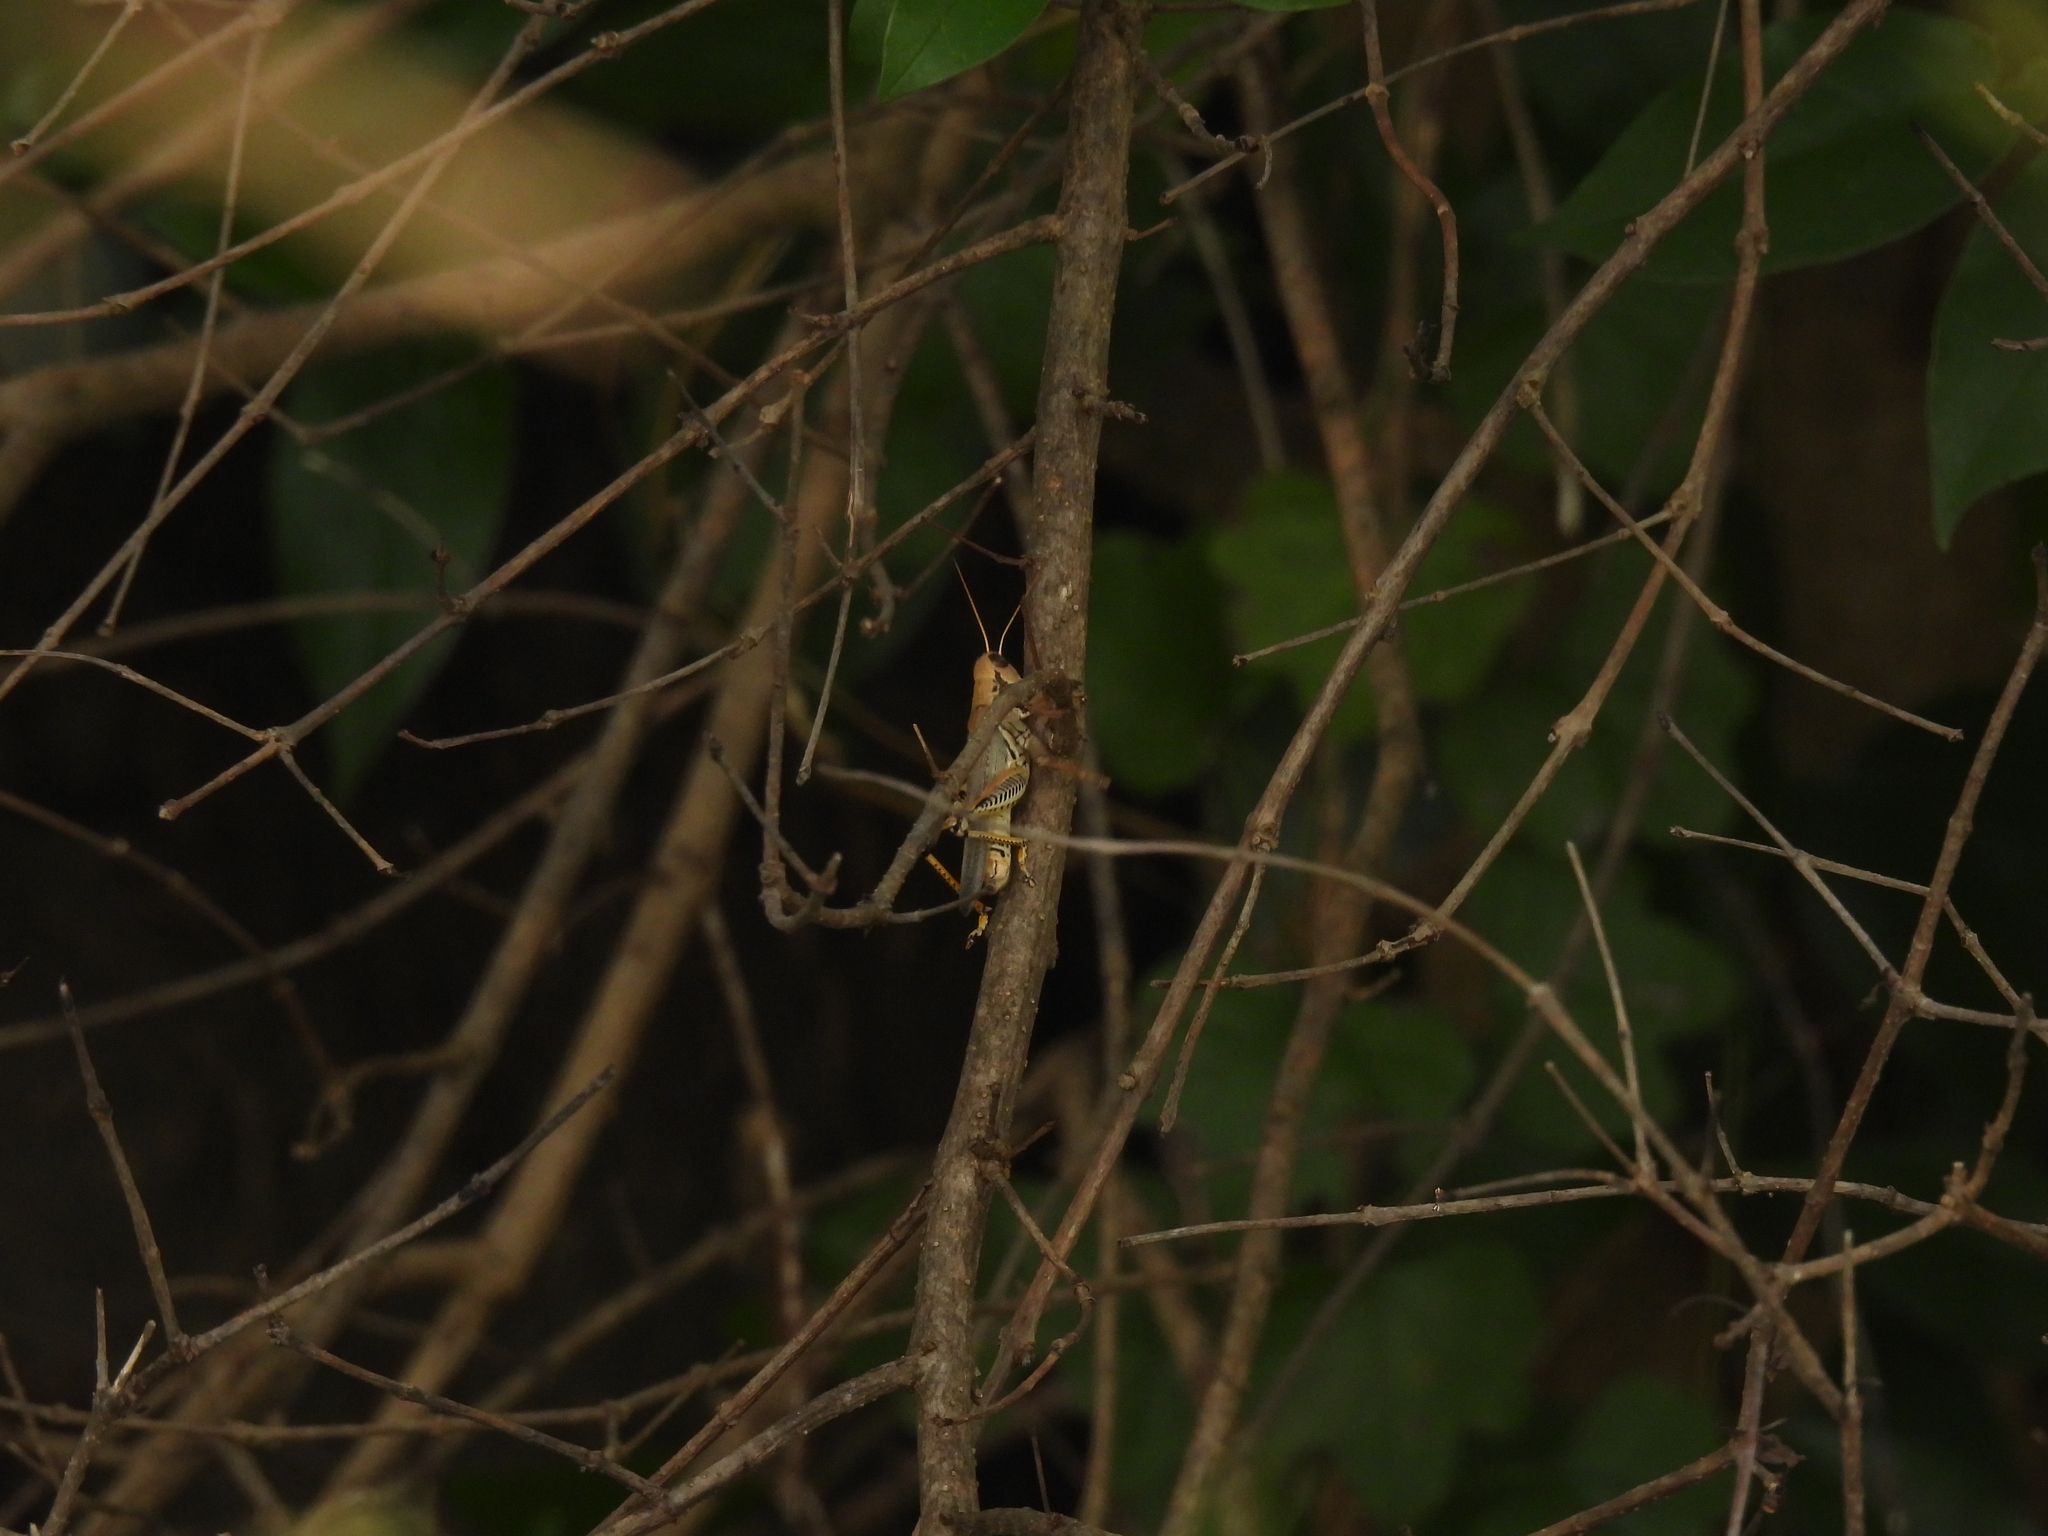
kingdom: Animalia
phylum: Arthropoda
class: Insecta
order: Orthoptera
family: Acrididae
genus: Melanoplus
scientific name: Melanoplus differentialis
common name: Differential grasshopper
